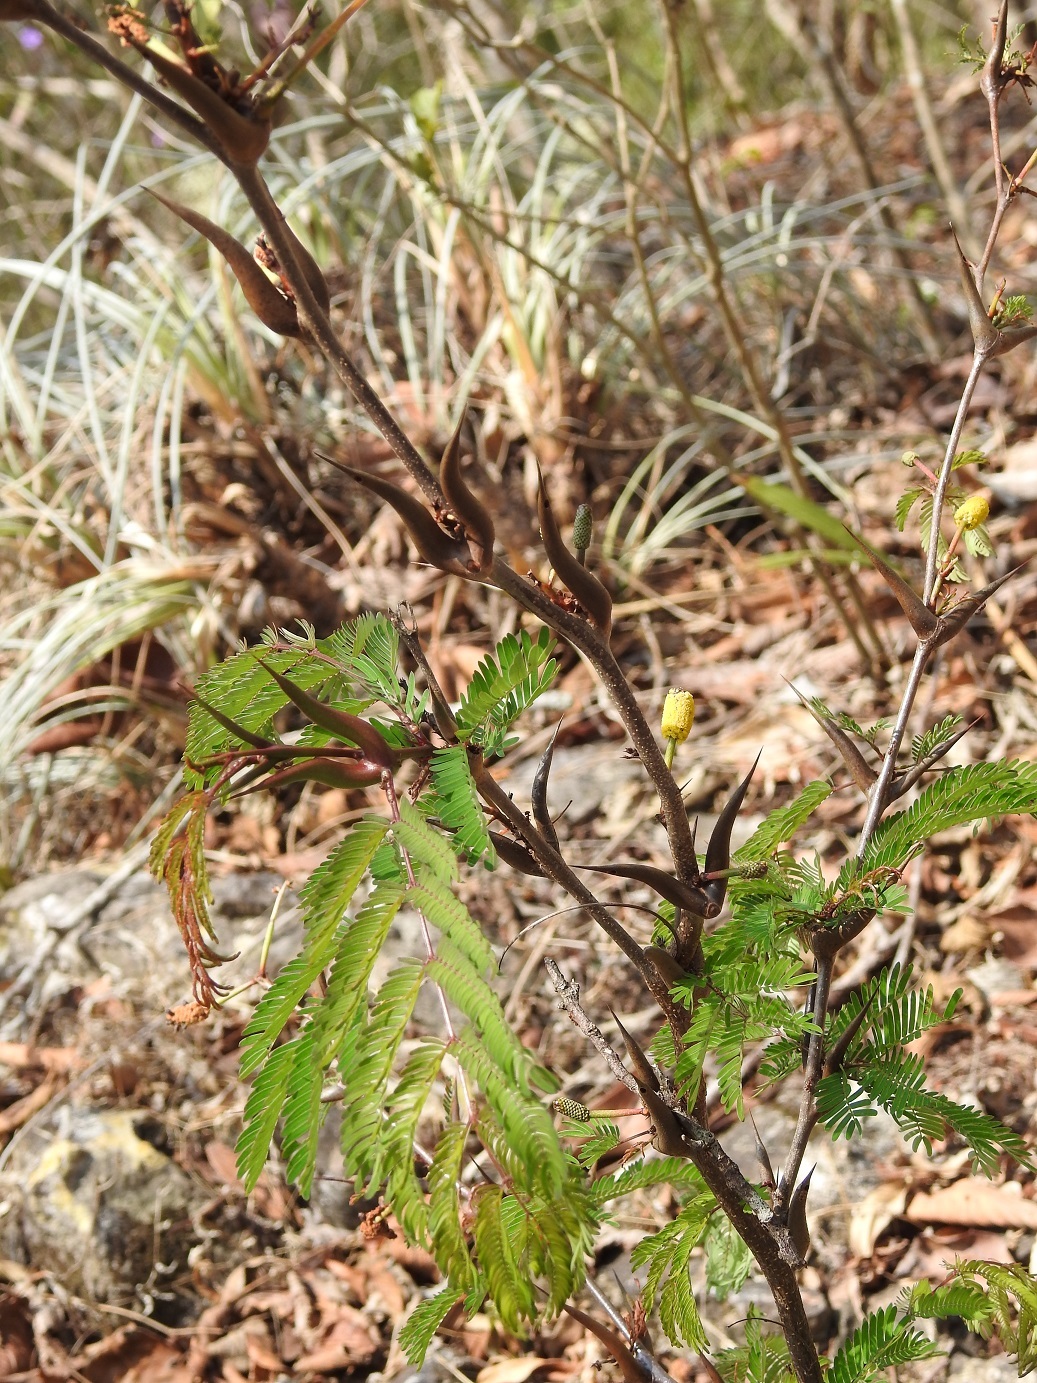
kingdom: Plantae
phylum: Tracheophyta
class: Magnoliopsida
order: Fabales
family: Fabaceae
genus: Vachellia
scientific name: Vachellia cornigera
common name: Bullhorn wattle
